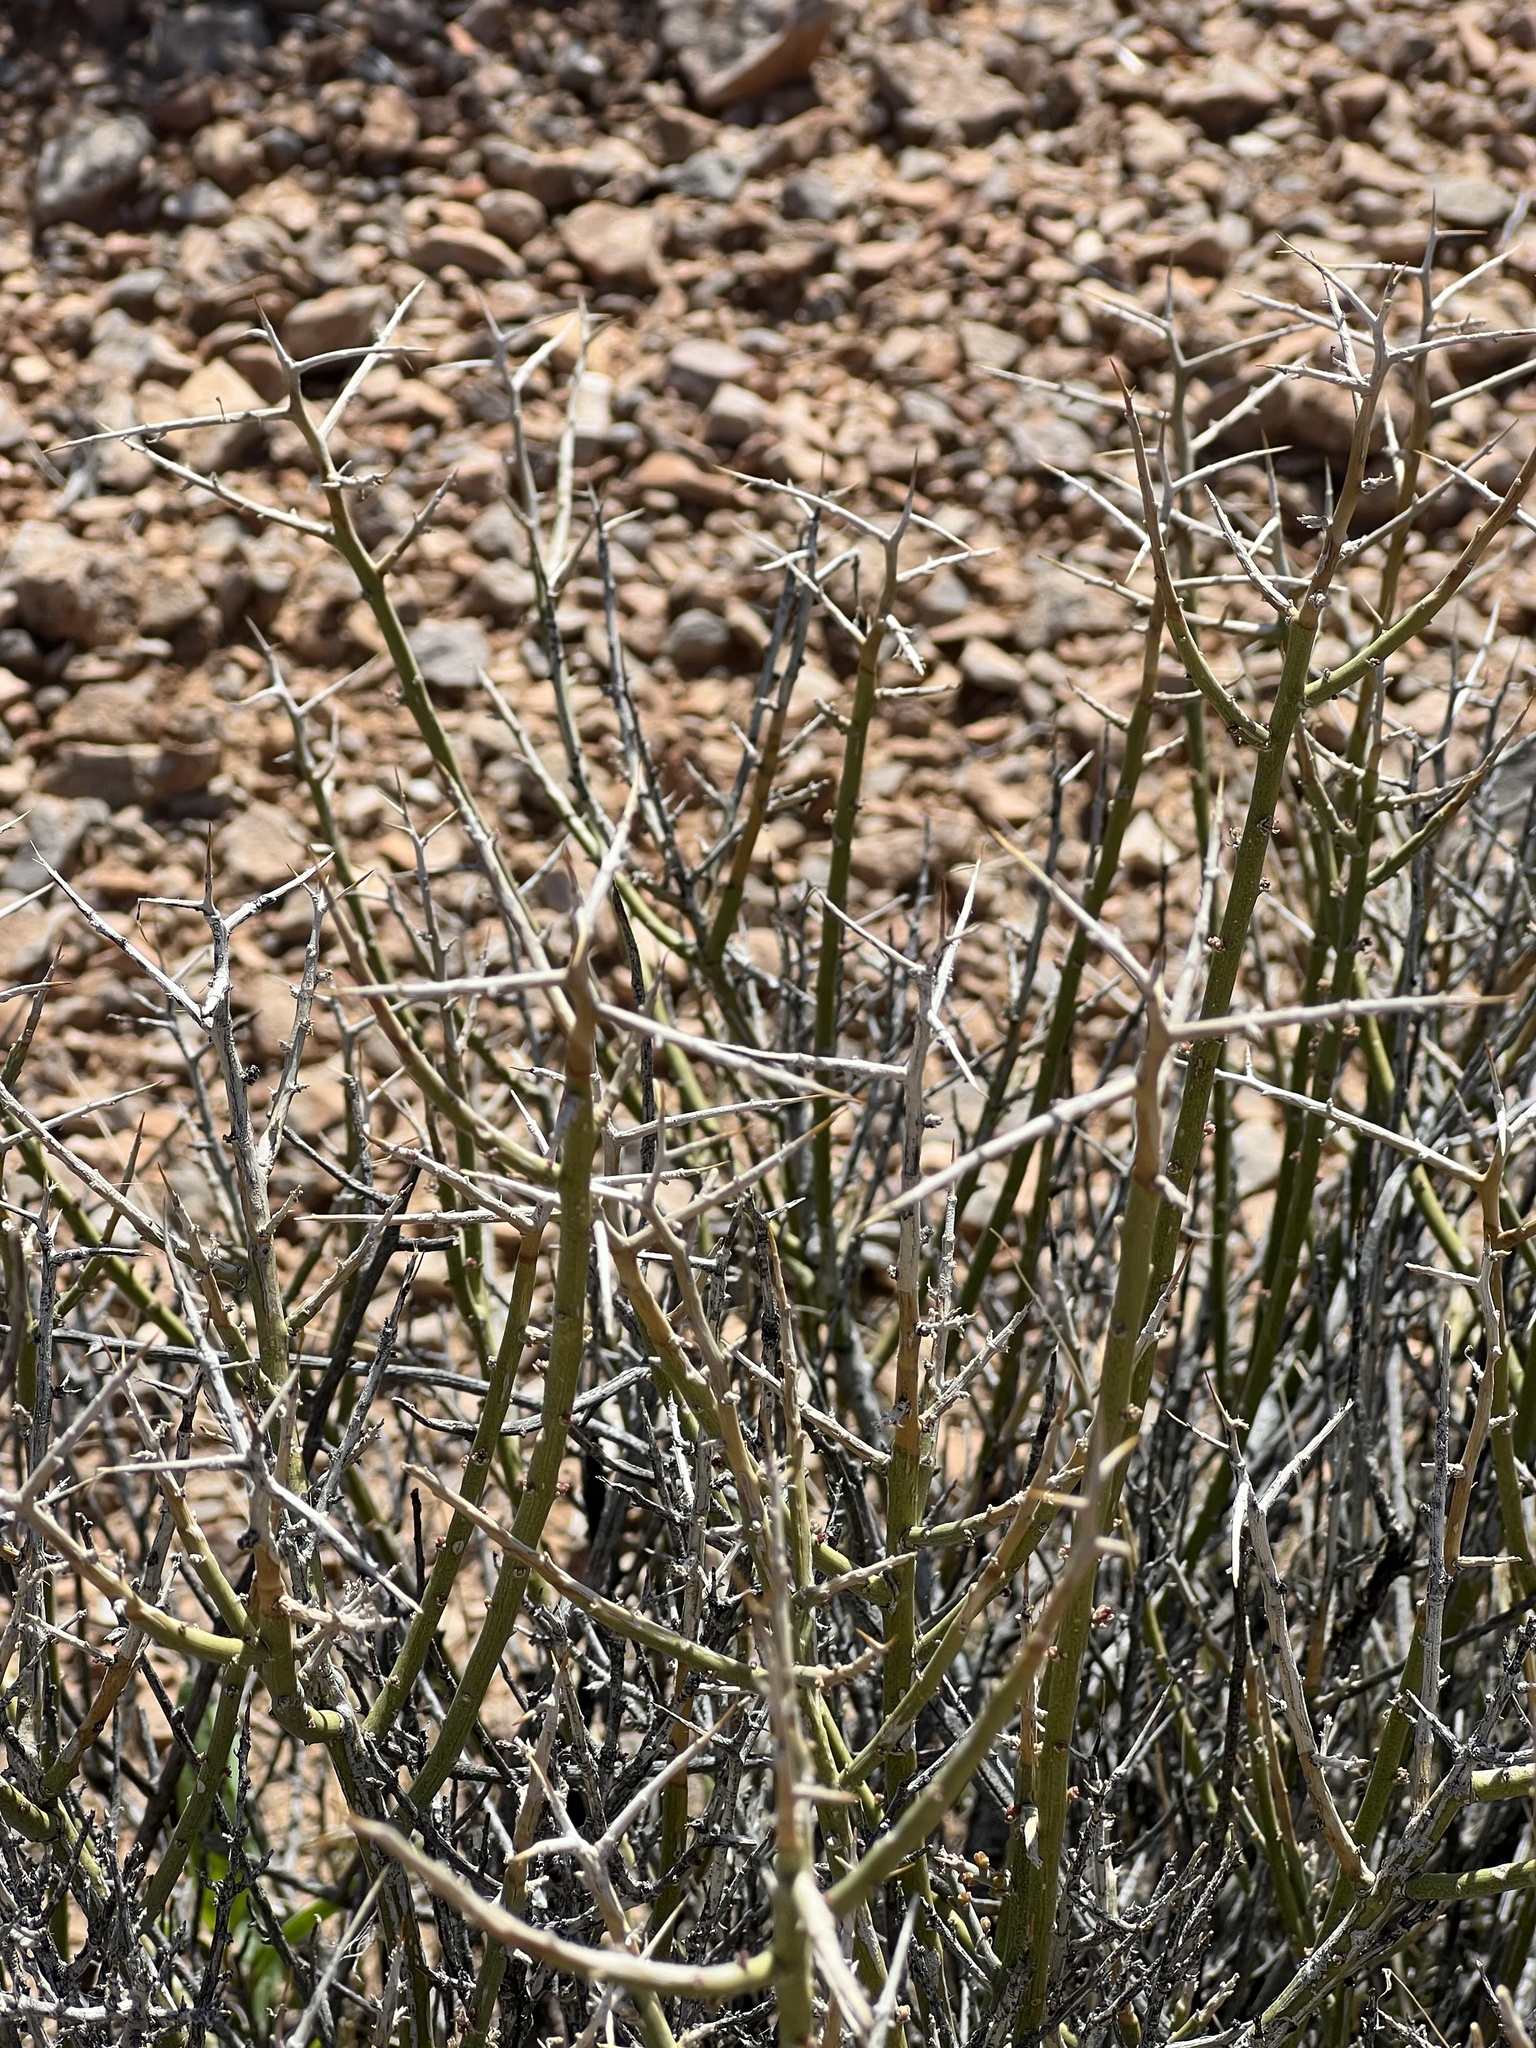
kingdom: Plantae
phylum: Tracheophyta
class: Magnoliopsida
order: Lamiales
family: Oleaceae
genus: Menodora
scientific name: Menodora spinescens
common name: Spiny menodora
